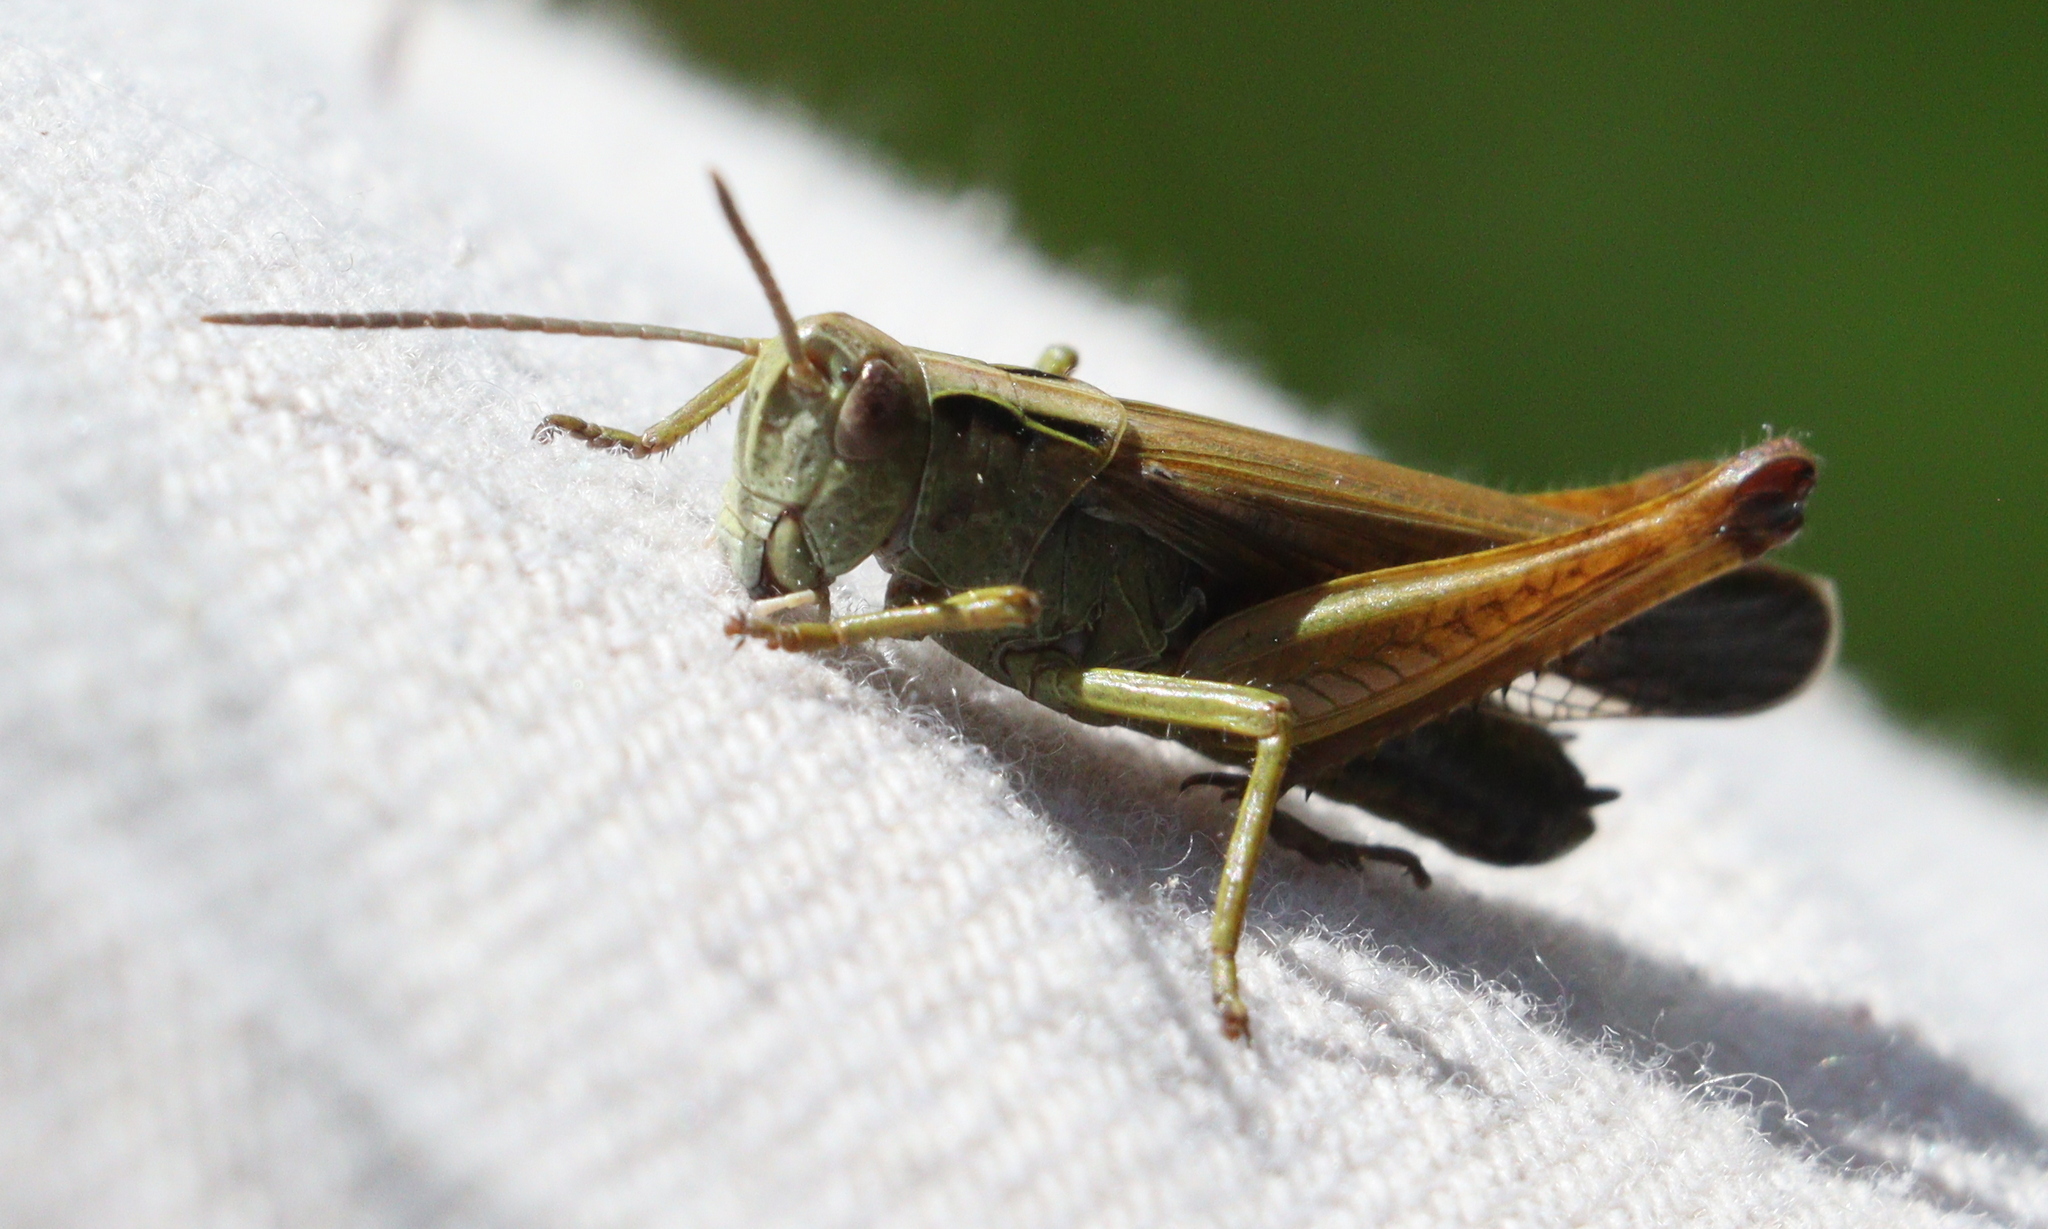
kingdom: Animalia
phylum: Arthropoda
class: Insecta
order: Orthoptera
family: Acrididae
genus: Omocestus
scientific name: Omocestus viridulus
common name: Common green grasshopper
